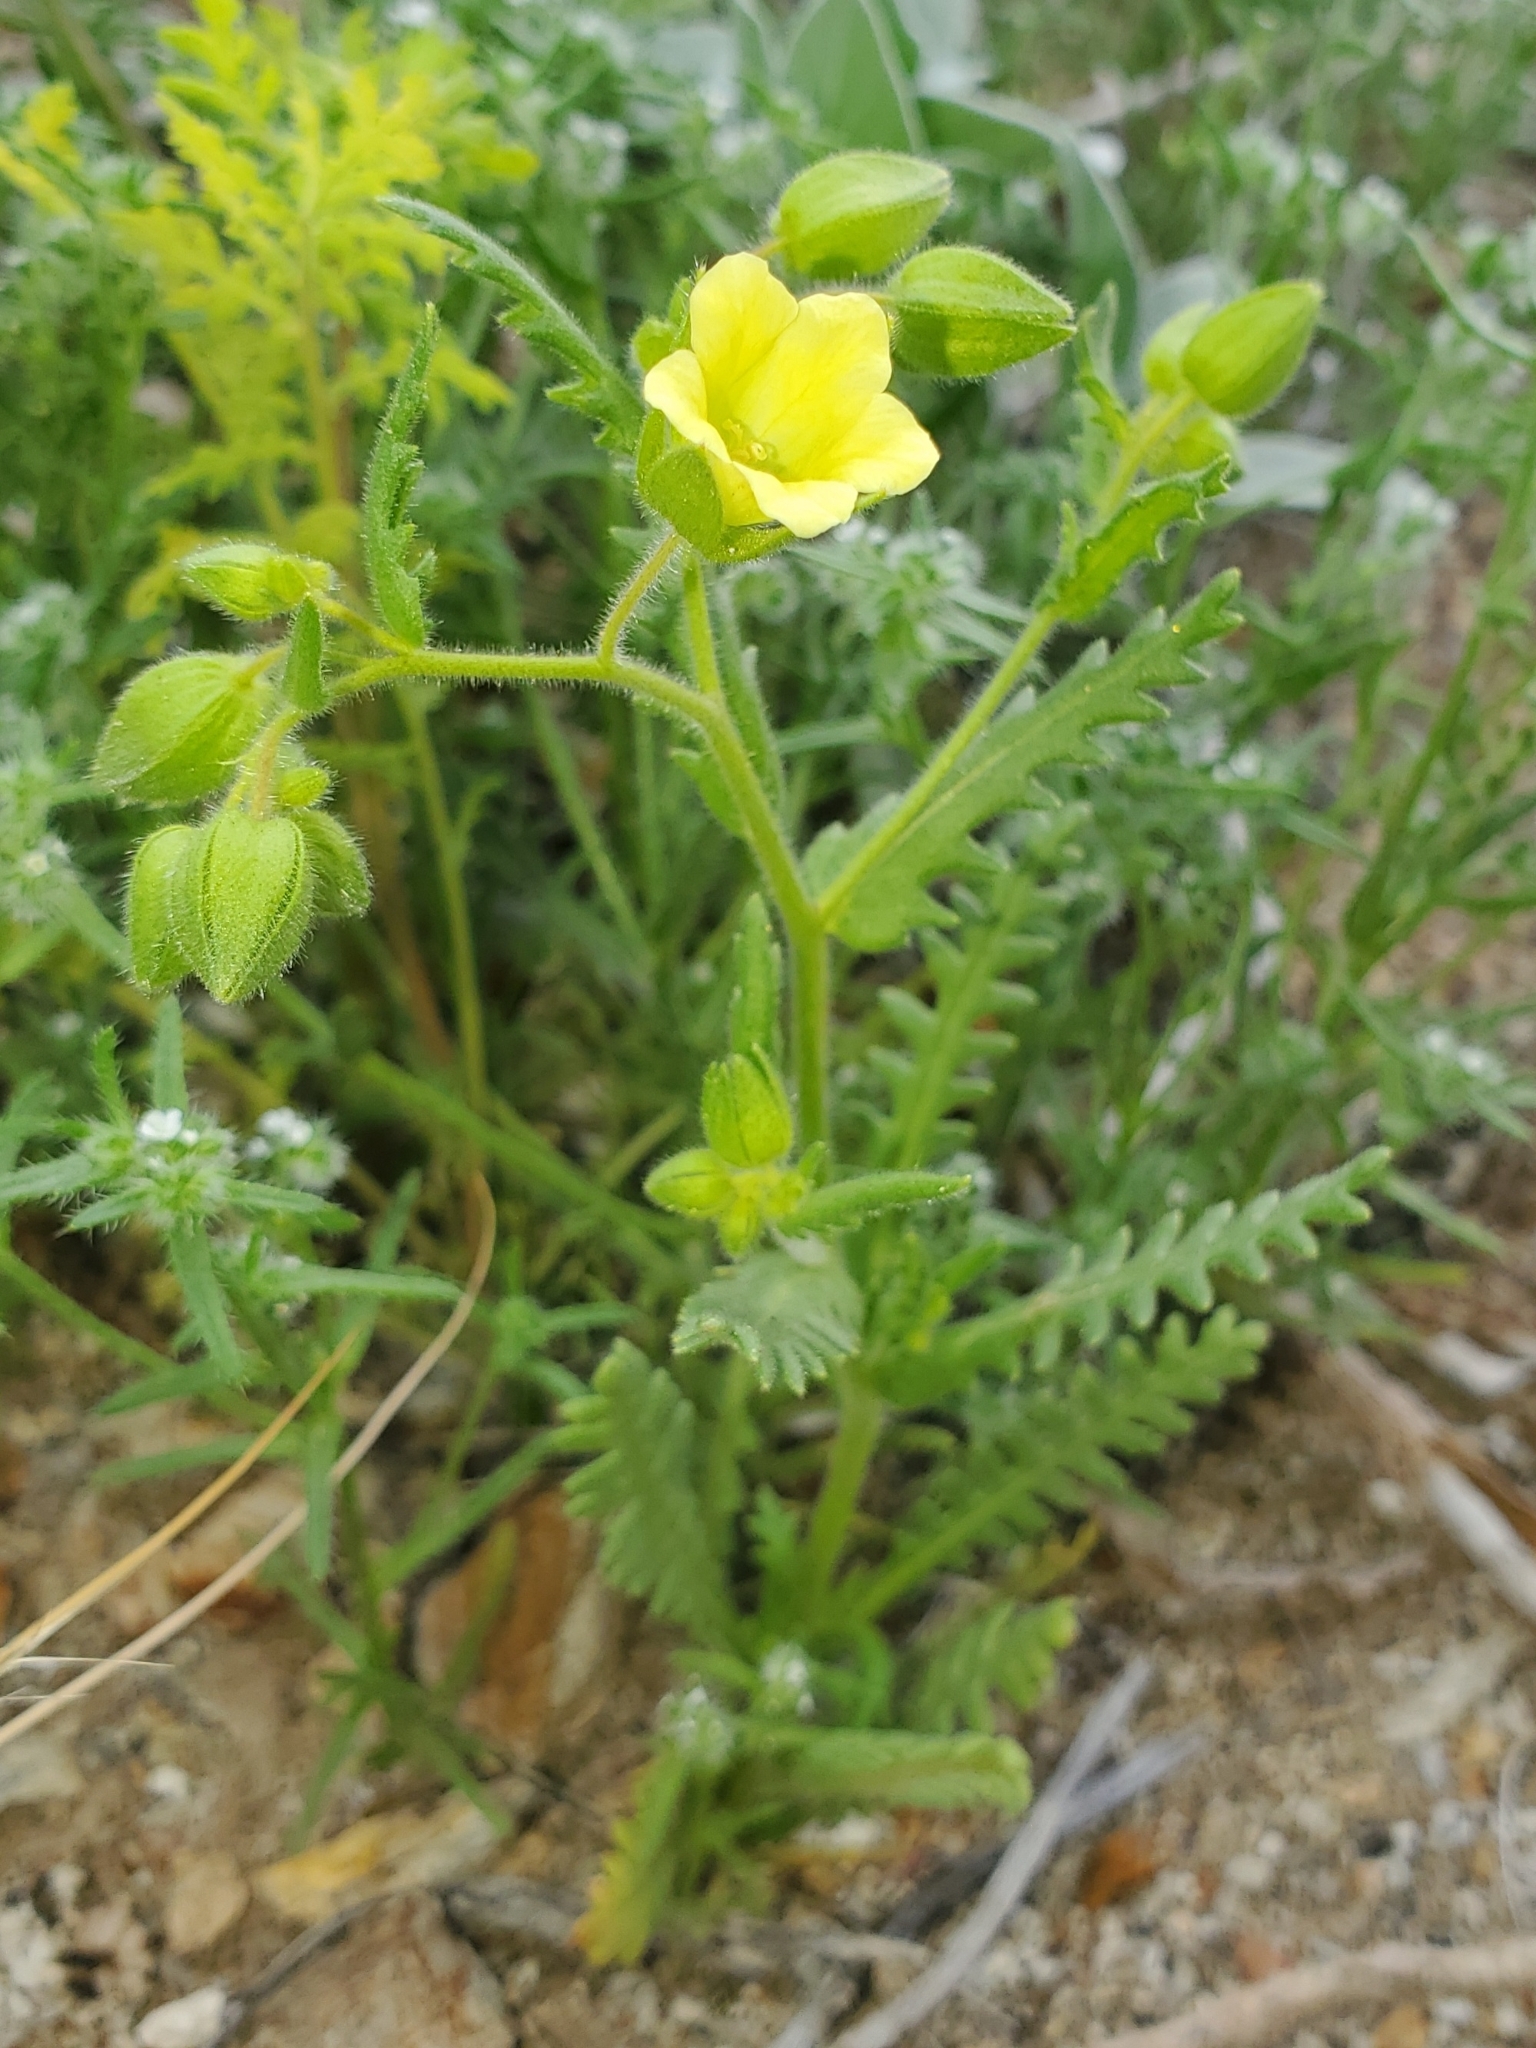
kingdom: Plantae
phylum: Tracheophyta
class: Magnoliopsida
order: Boraginales
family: Hydrophyllaceae
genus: Emmenanthe
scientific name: Emmenanthe penduliflora
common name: Whispering-bells
